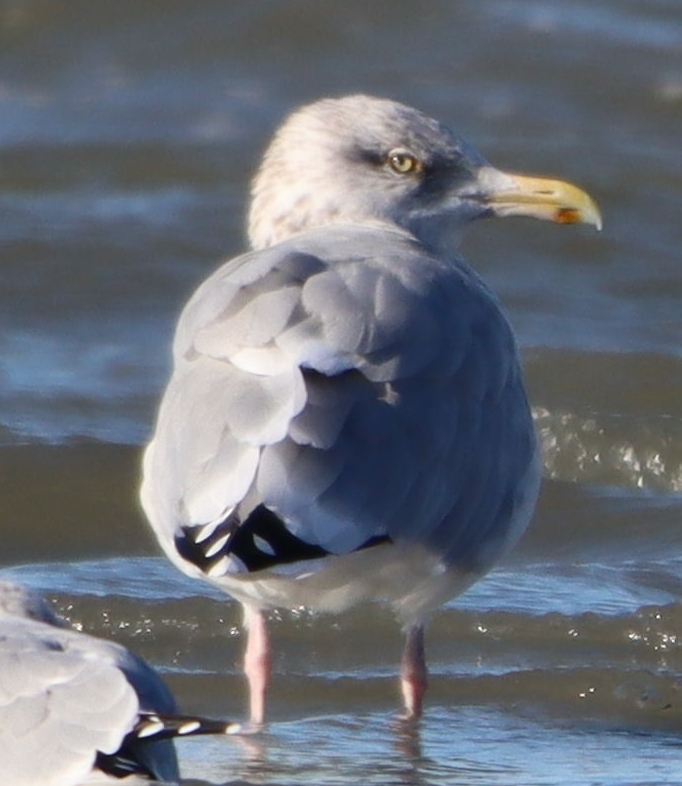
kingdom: Animalia
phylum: Chordata
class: Aves
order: Charadriiformes
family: Laridae
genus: Larus
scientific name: Larus argentatus
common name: Herring gull
